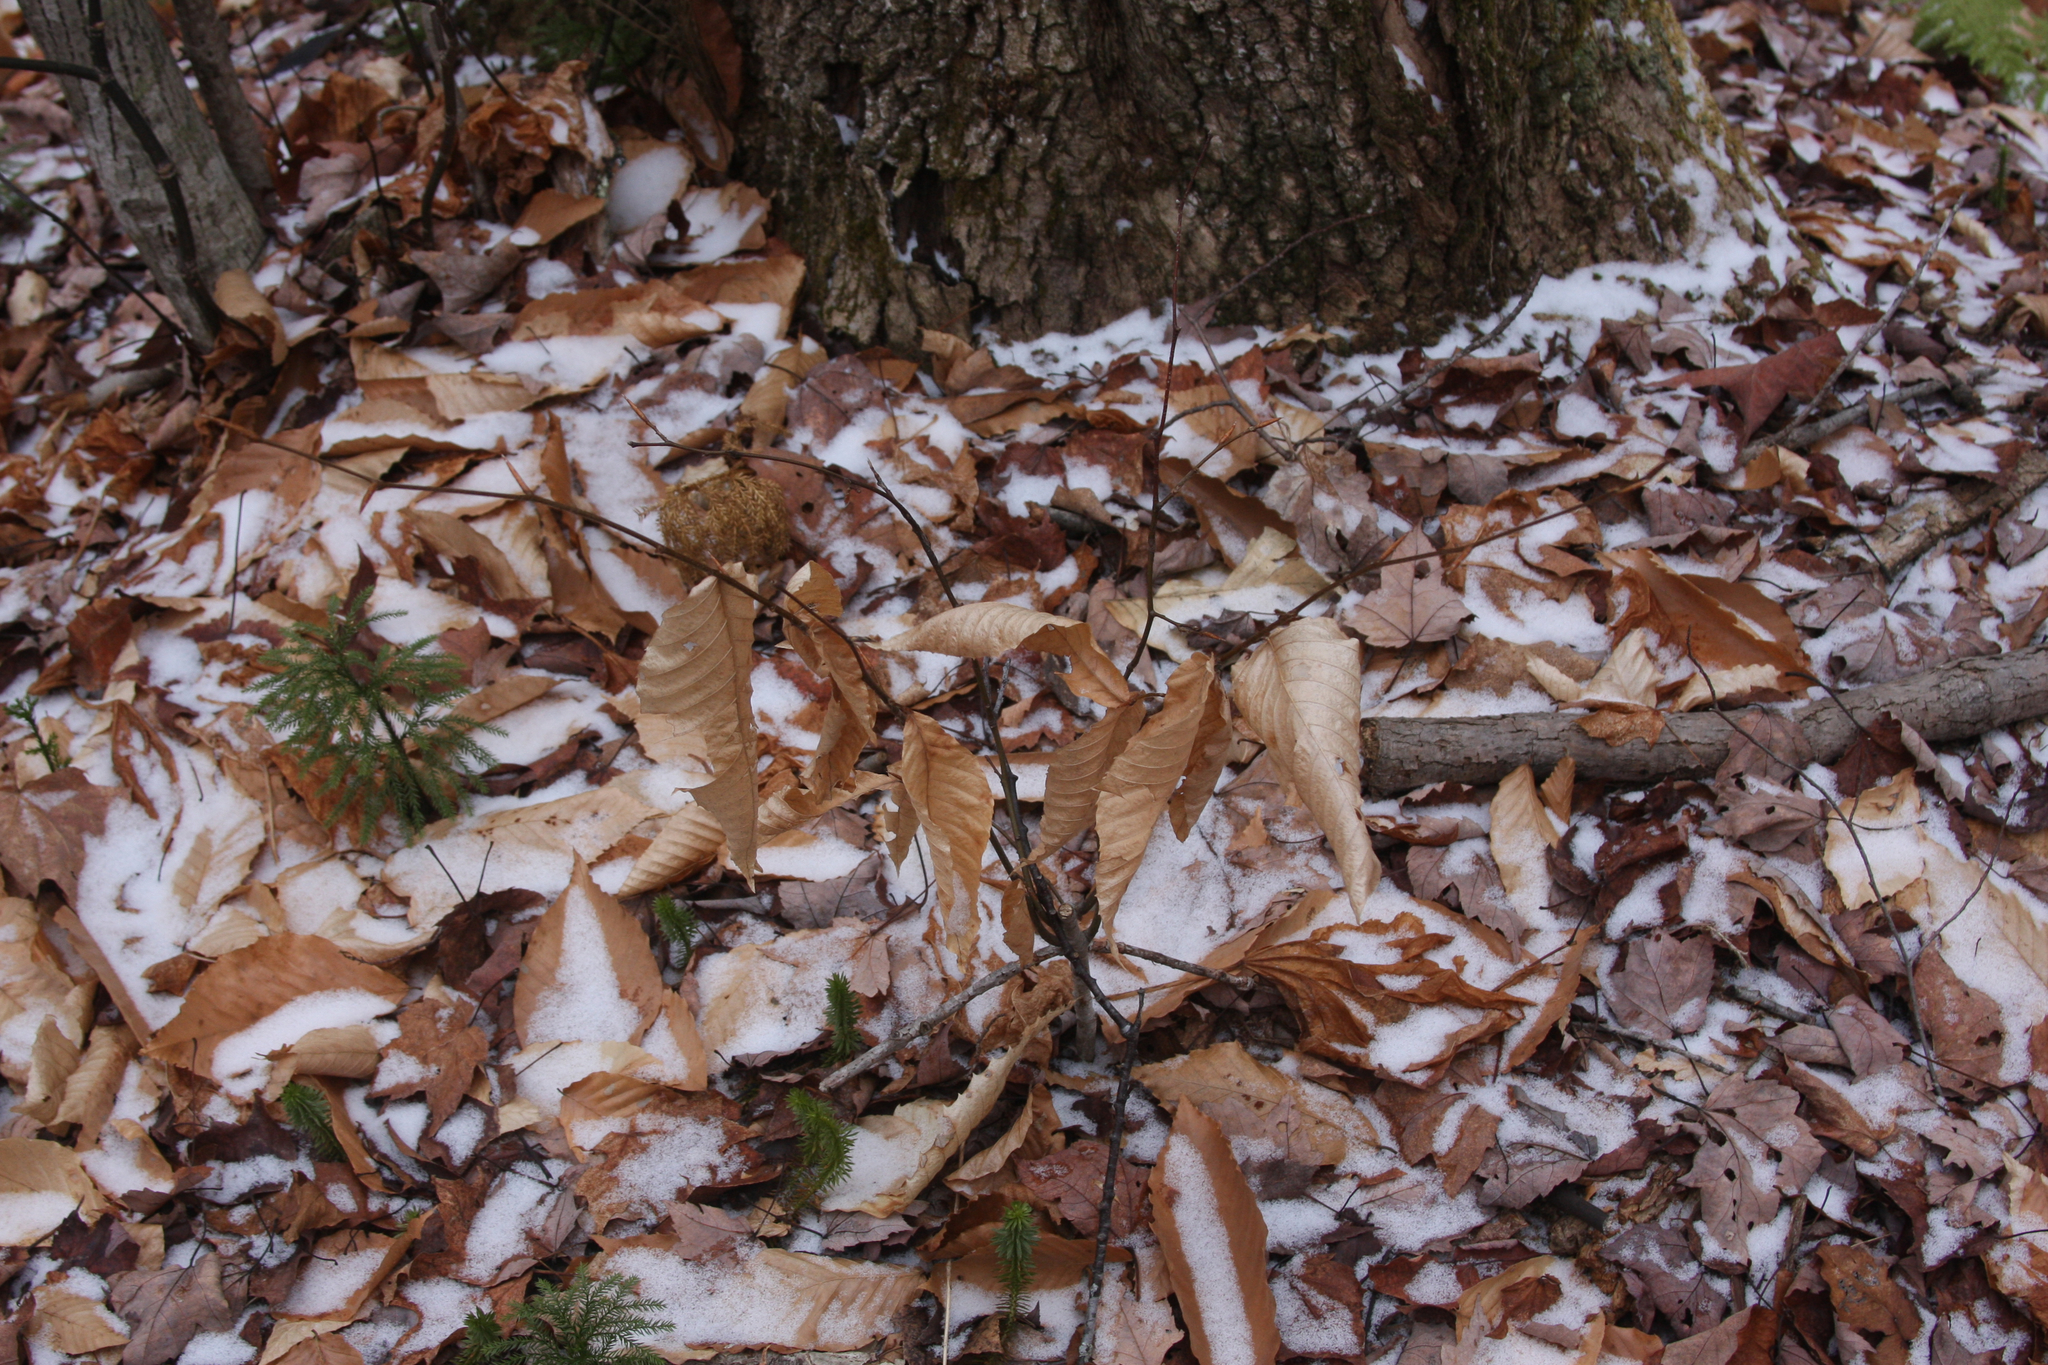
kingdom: Plantae
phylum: Tracheophyta
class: Magnoliopsida
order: Fagales
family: Fagaceae
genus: Fagus
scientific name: Fagus grandifolia
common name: American beech
